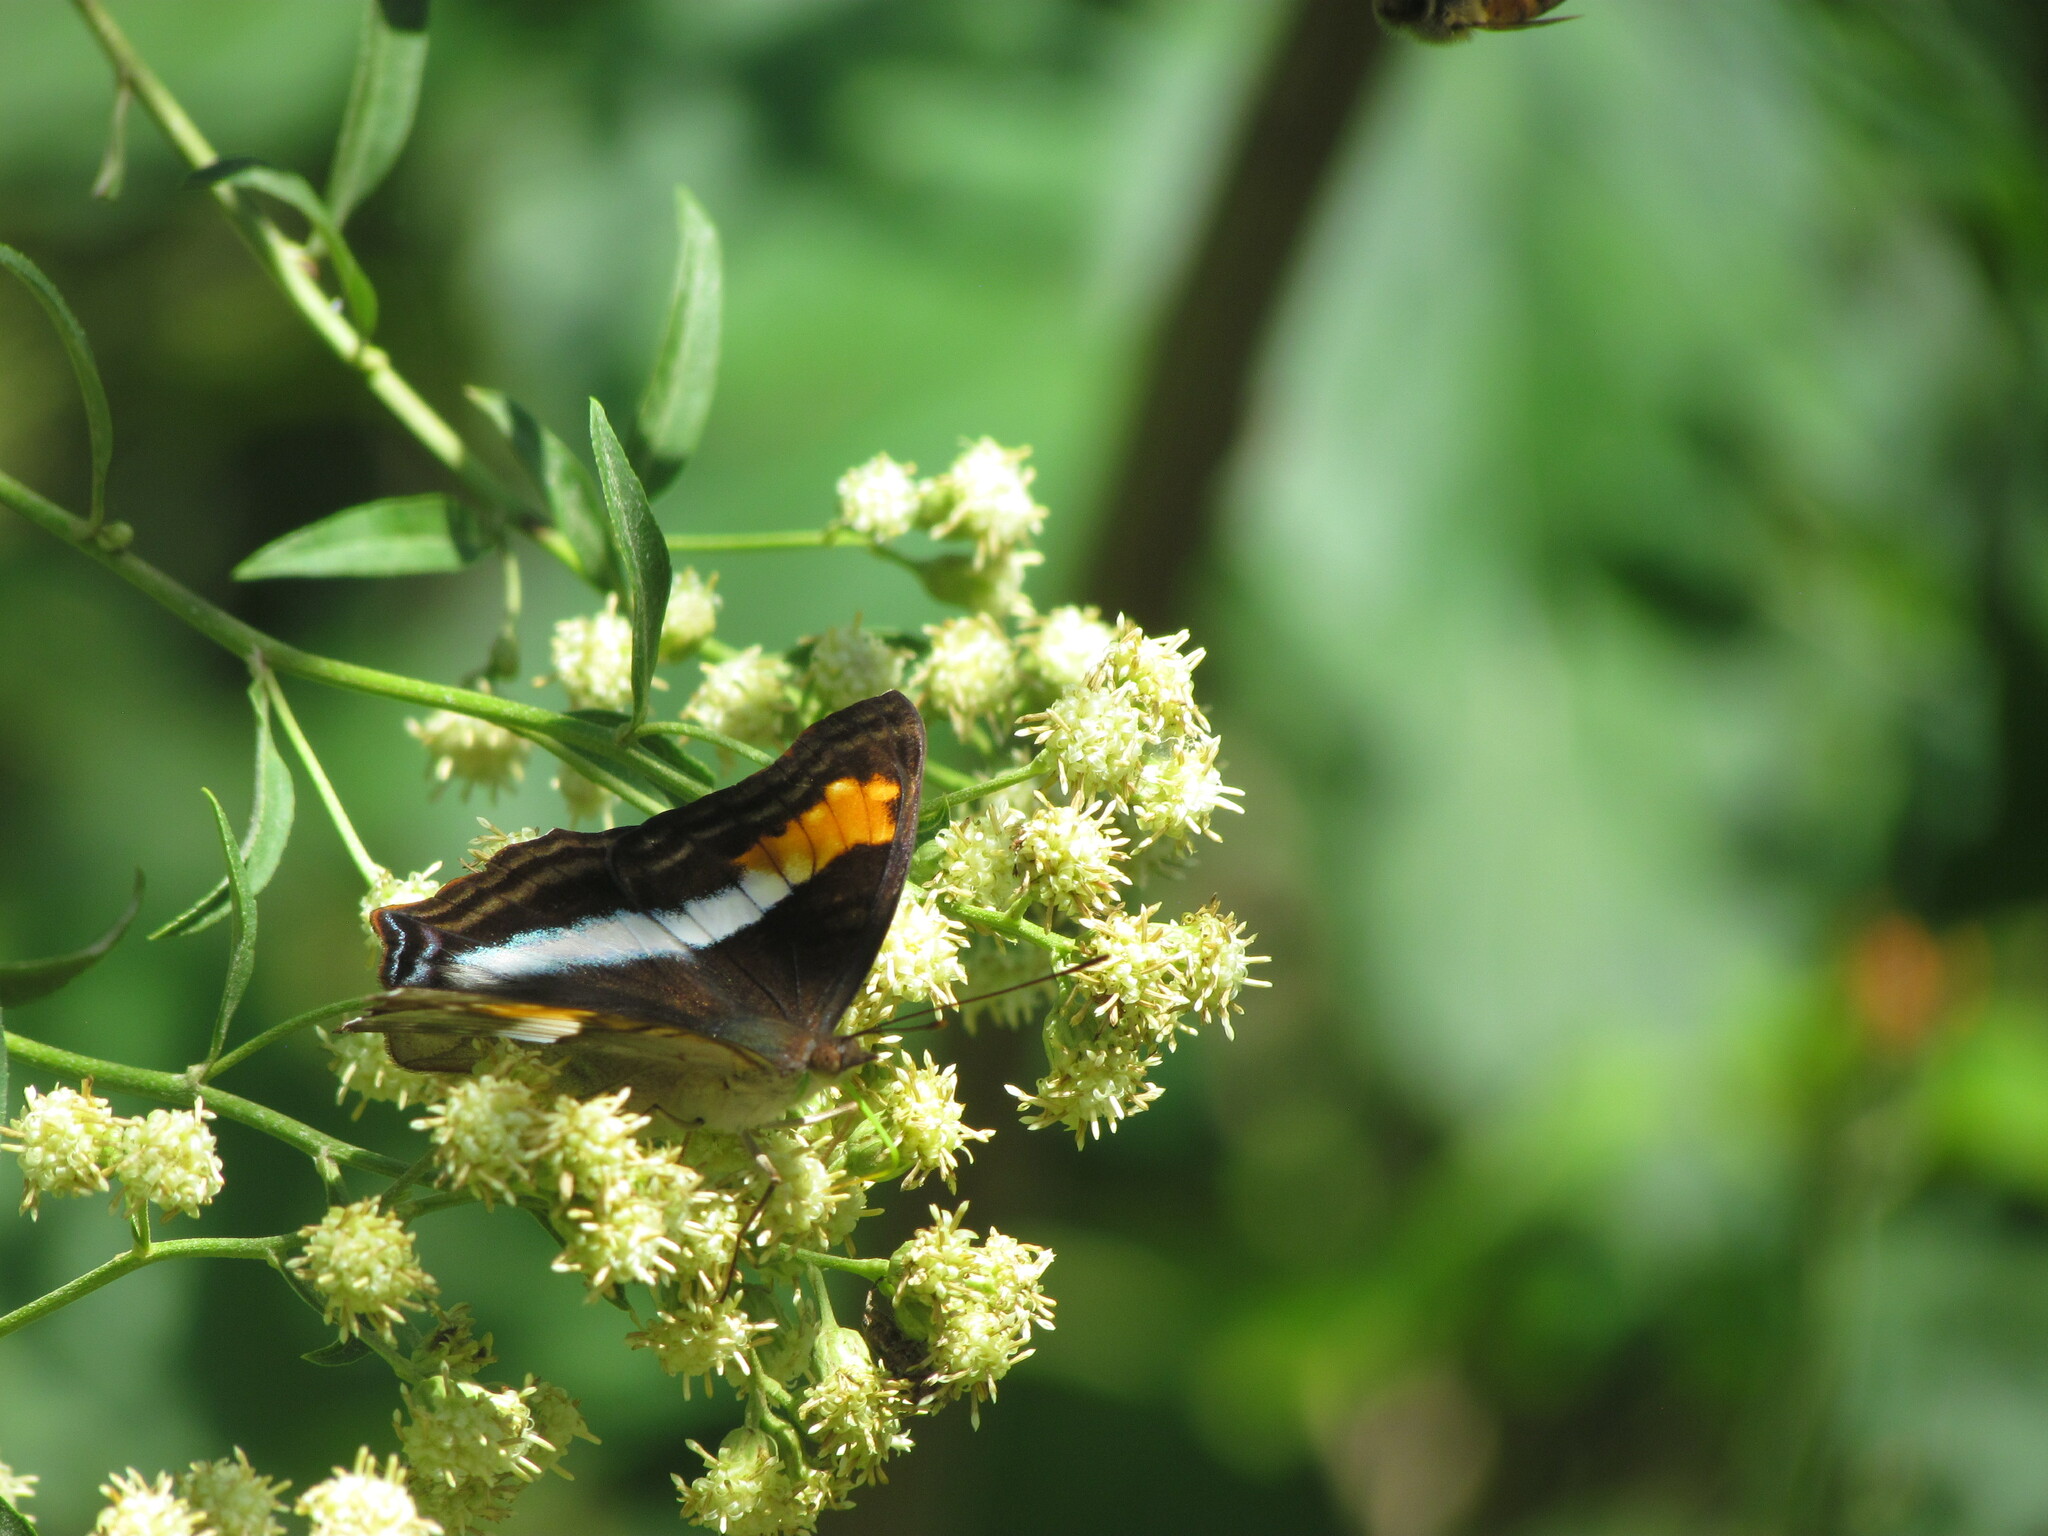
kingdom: Animalia
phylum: Arthropoda
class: Insecta
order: Lepidoptera
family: Nymphalidae
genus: Doxocopa
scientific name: Doxocopa laurentia
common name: Turquoise emperor
